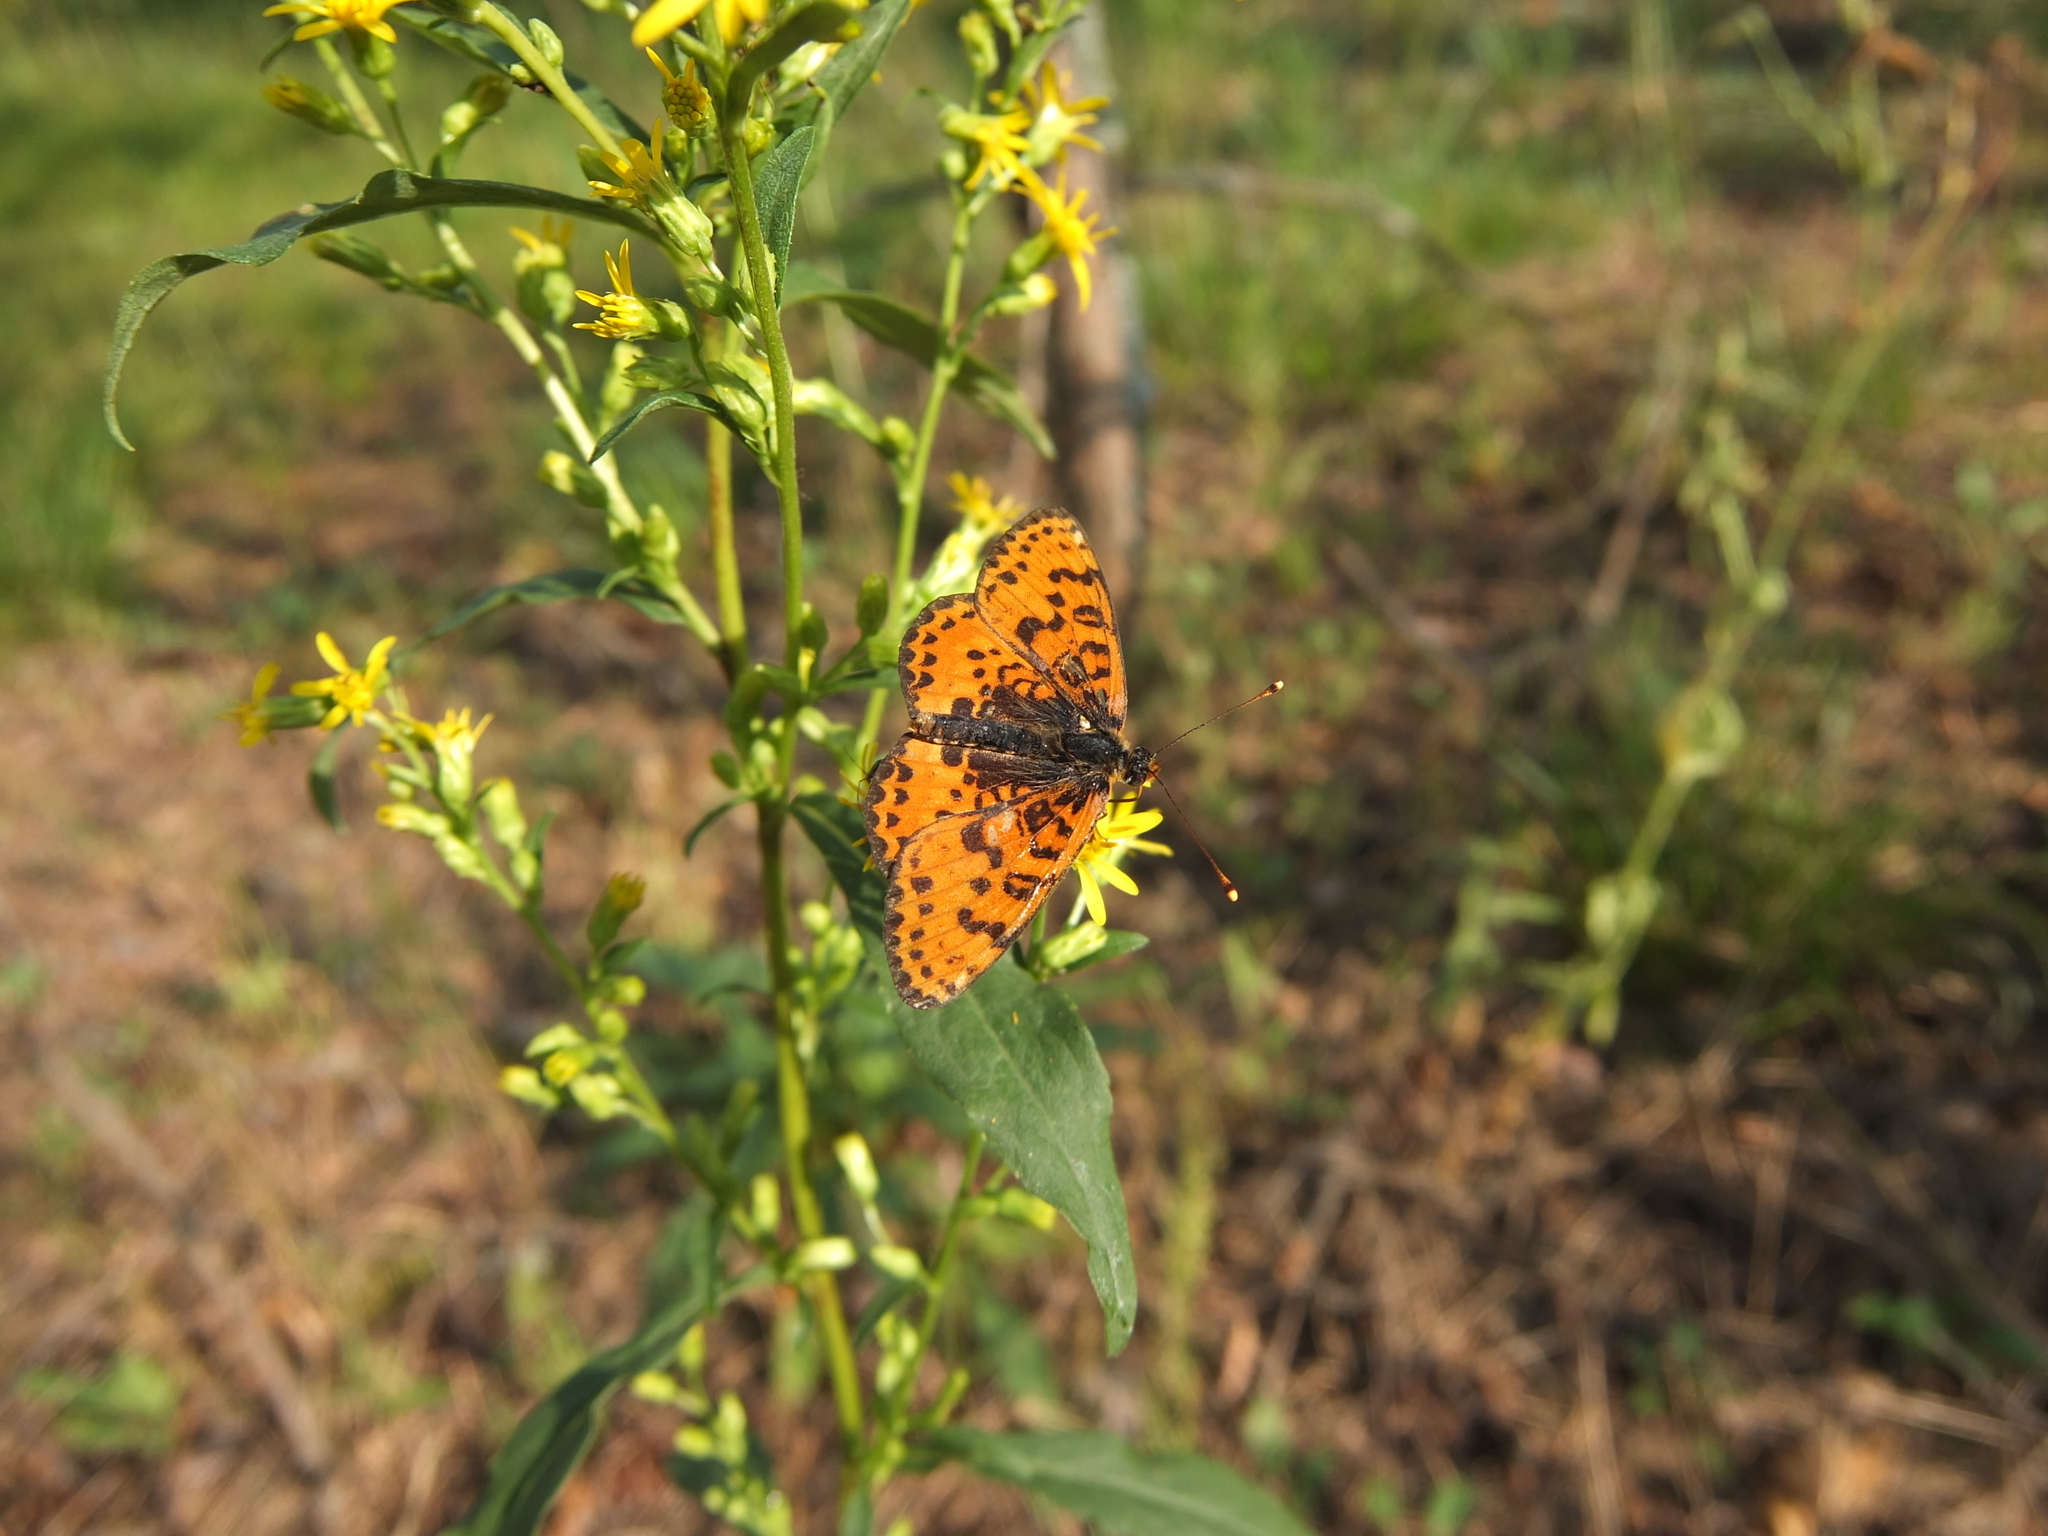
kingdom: Animalia
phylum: Arthropoda
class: Insecta
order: Lepidoptera
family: Nymphalidae
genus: Melitaea
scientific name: Melitaea didyma
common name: Spotted fritillary
